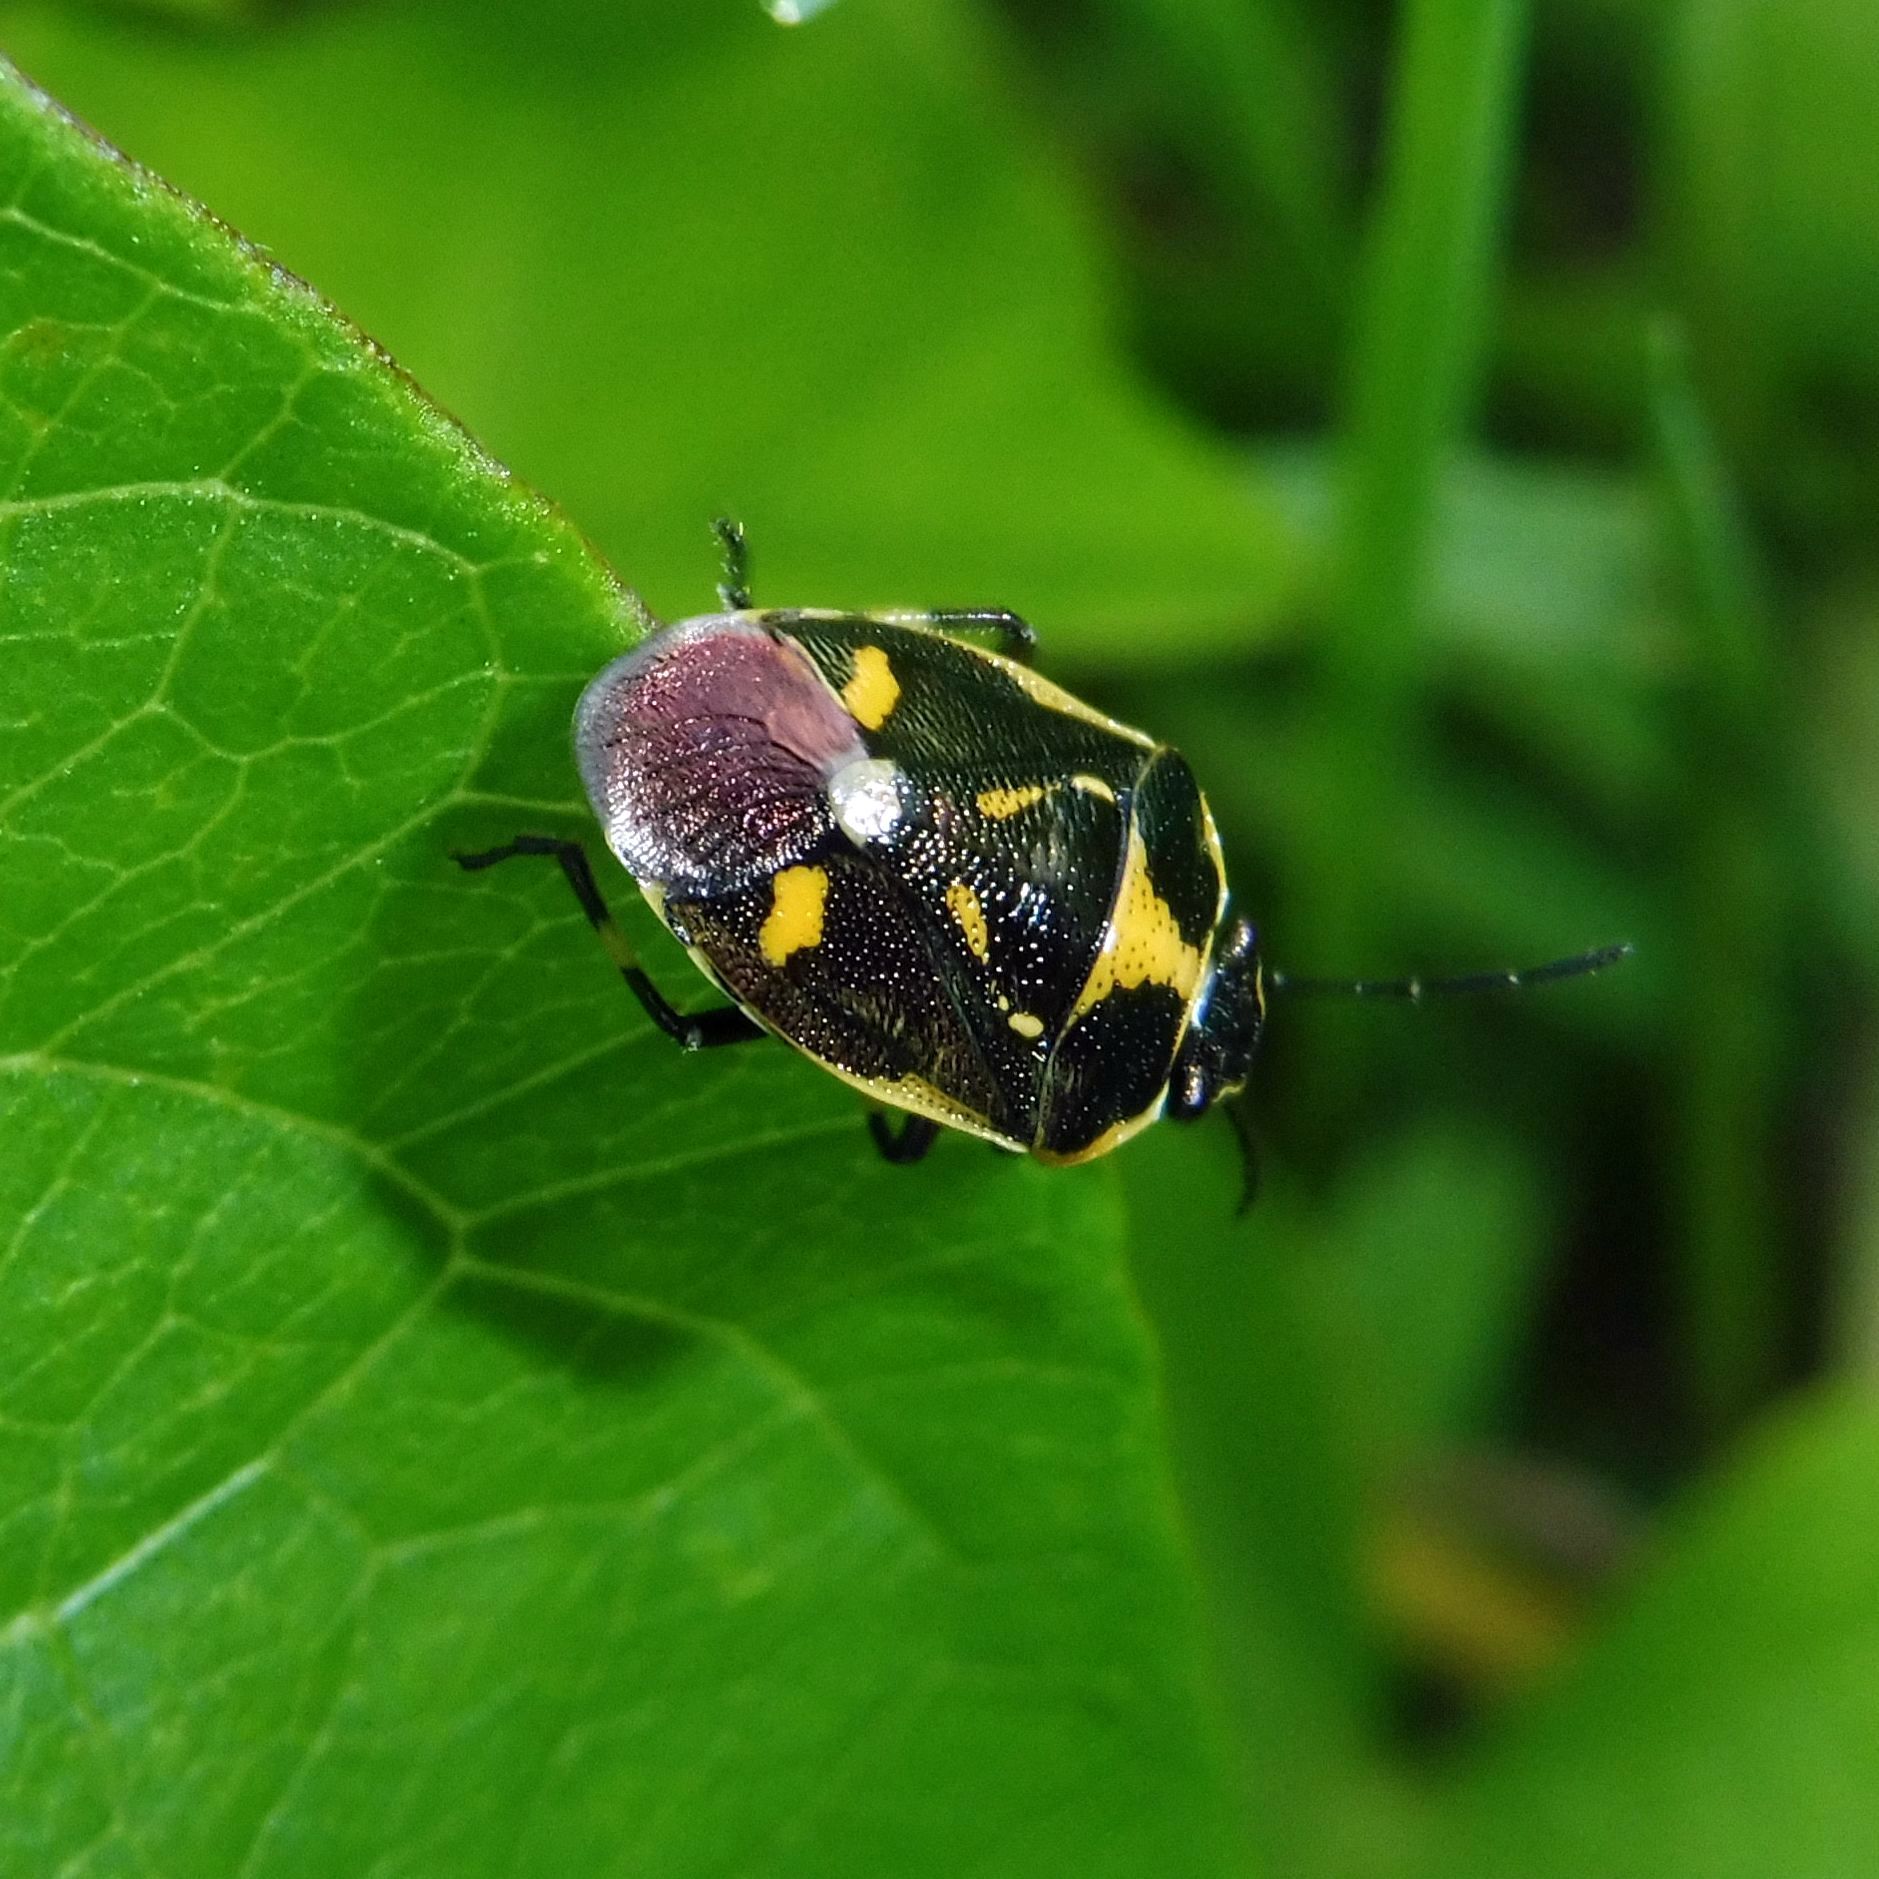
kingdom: Animalia
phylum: Arthropoda
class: Insecta
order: Hemiptera
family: Pentatomidae
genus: Eurydema
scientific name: Eurydema oleracea
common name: Cabbage bug
